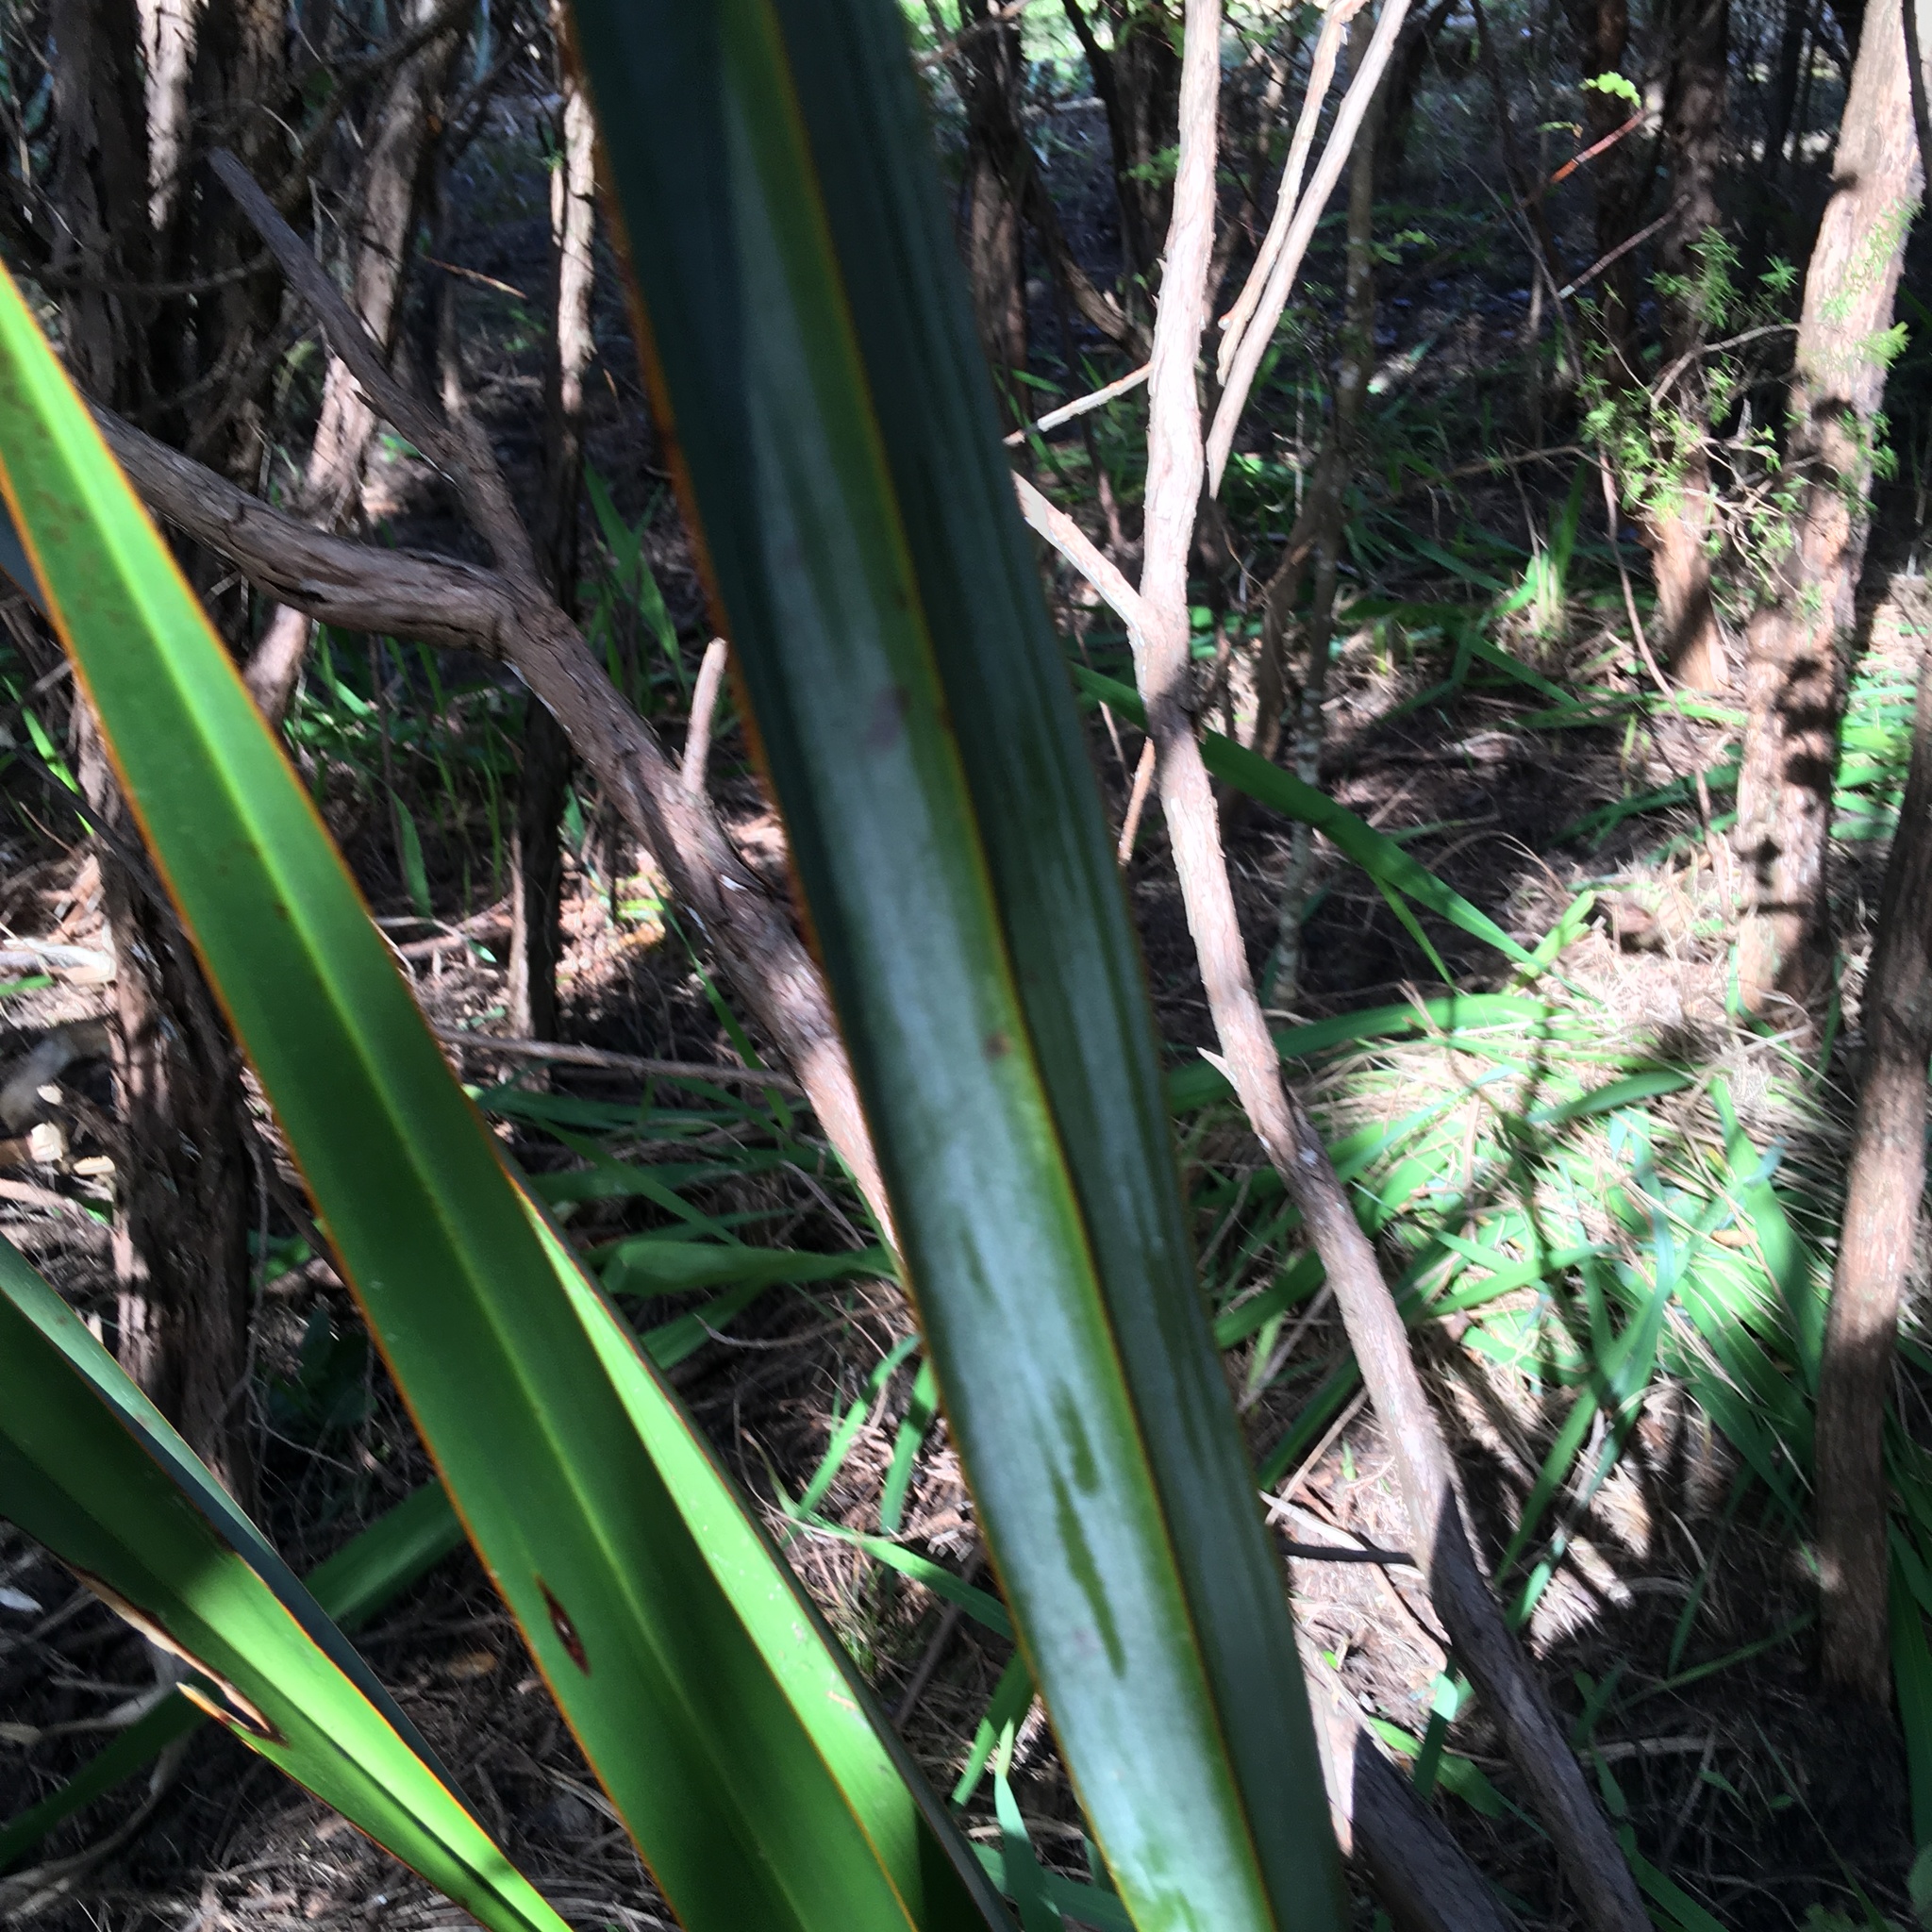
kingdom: Plantae
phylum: Tracheophyta
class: Liliopsida
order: Asparagales
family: Asphodelaceae
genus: Phormium
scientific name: Phormium tenax
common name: New zealand flax
